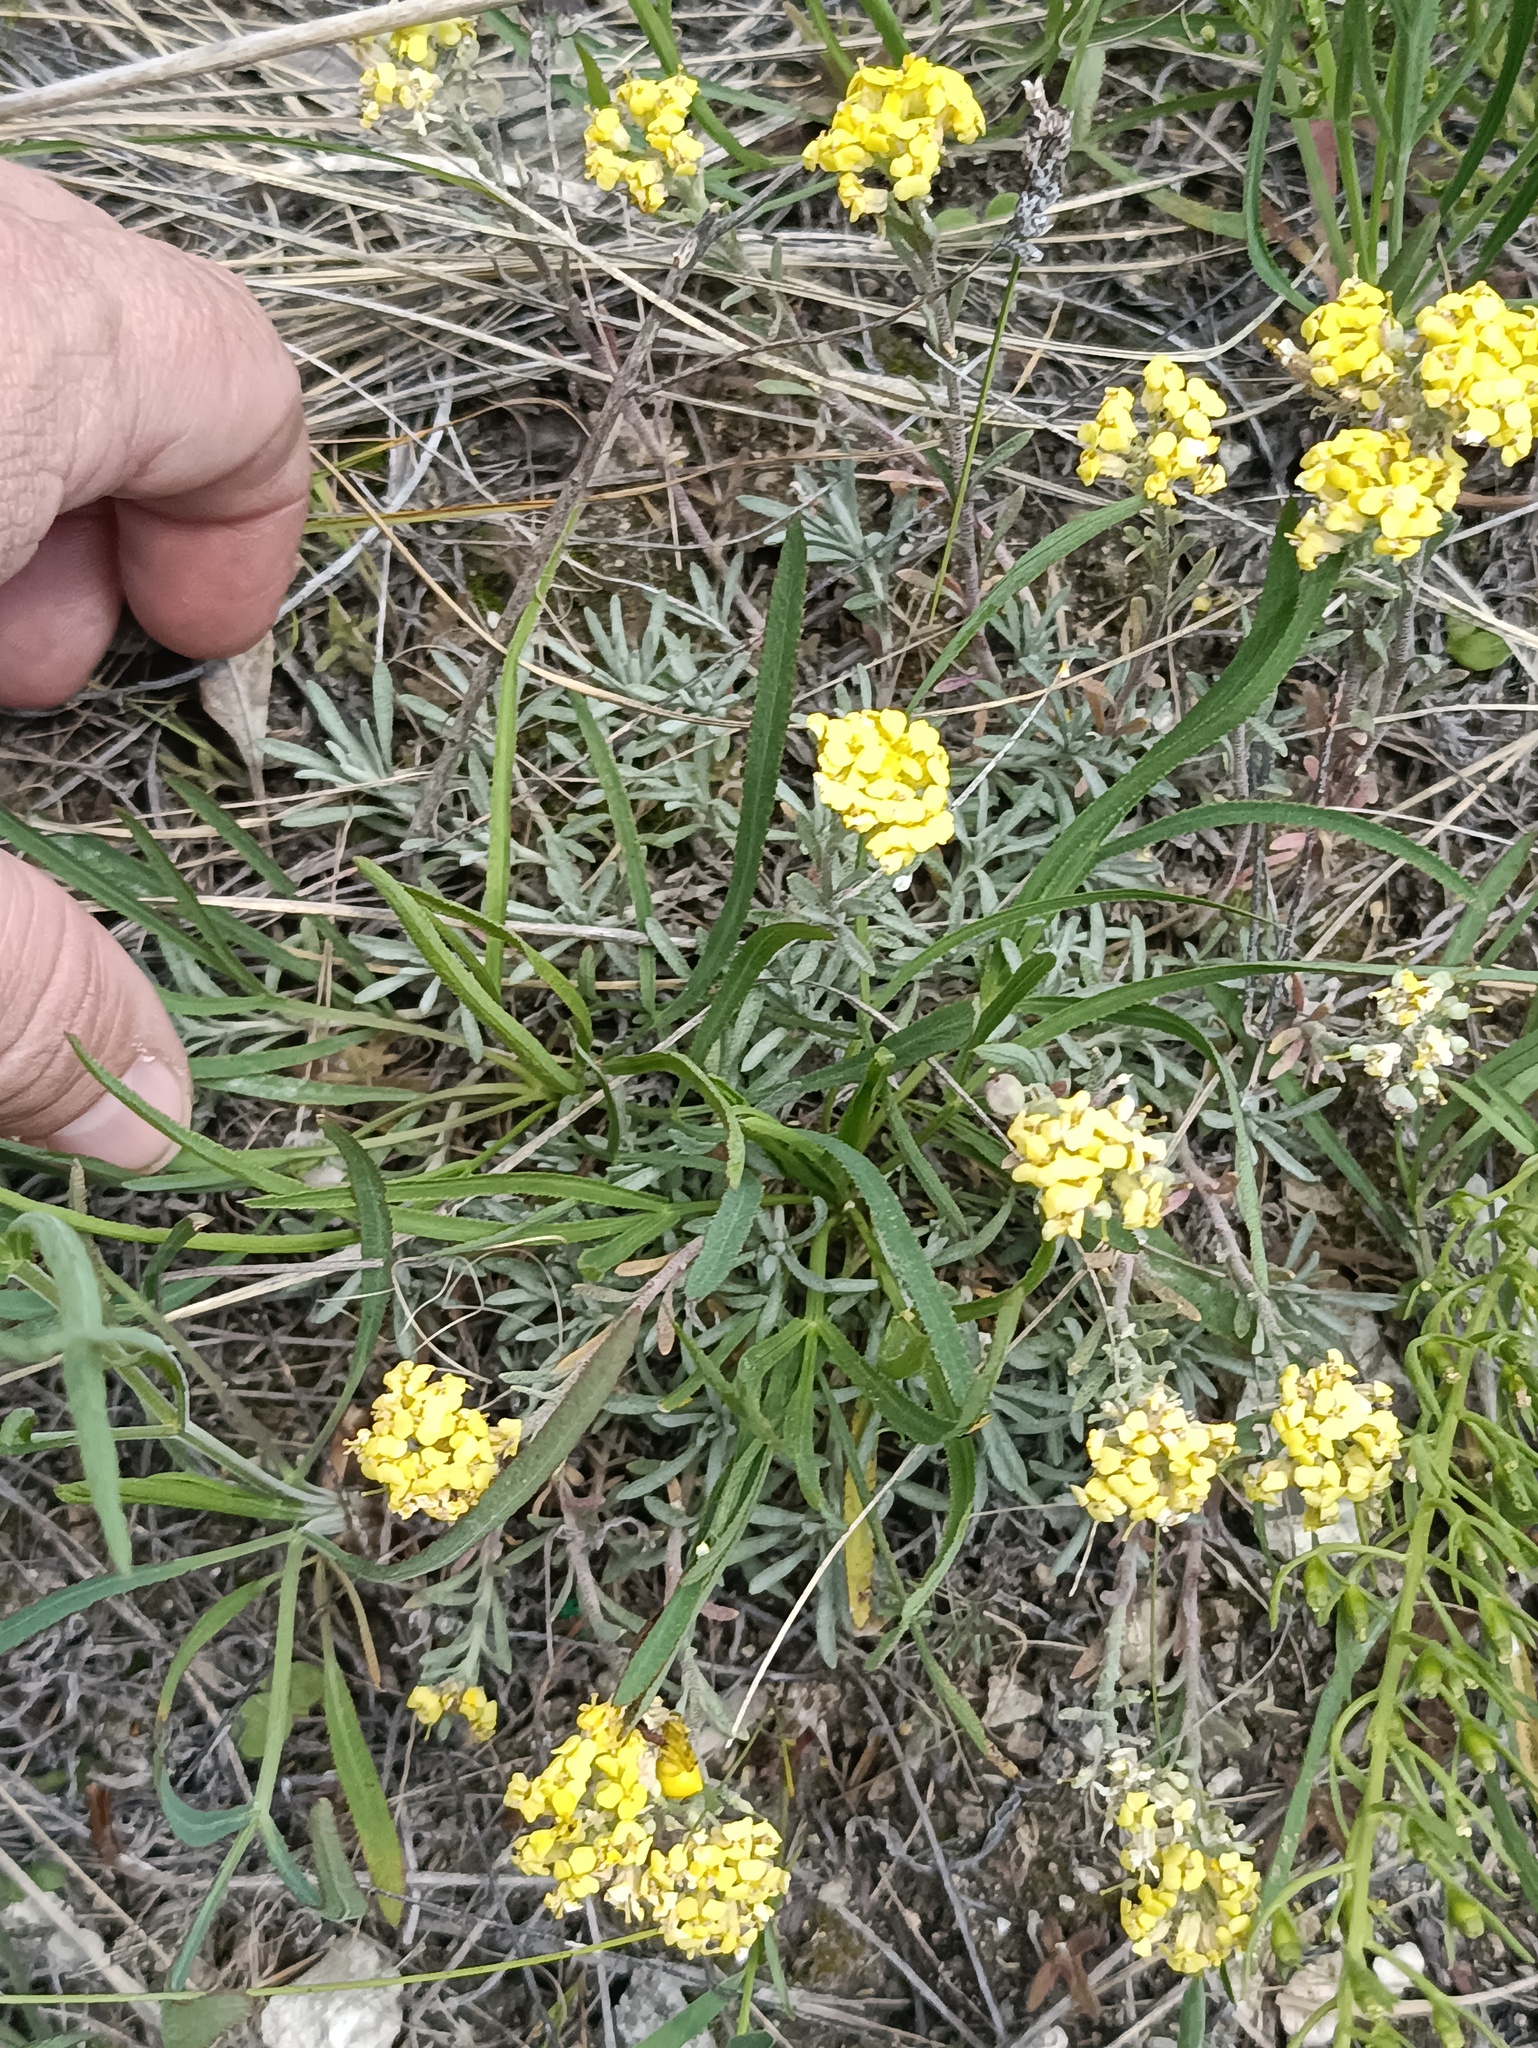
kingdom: Plantae
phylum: Tracheophyta
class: Magnoliopsida
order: Brassicales
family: Brassicaceae
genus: Alyssum
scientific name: Alyssum lenense
